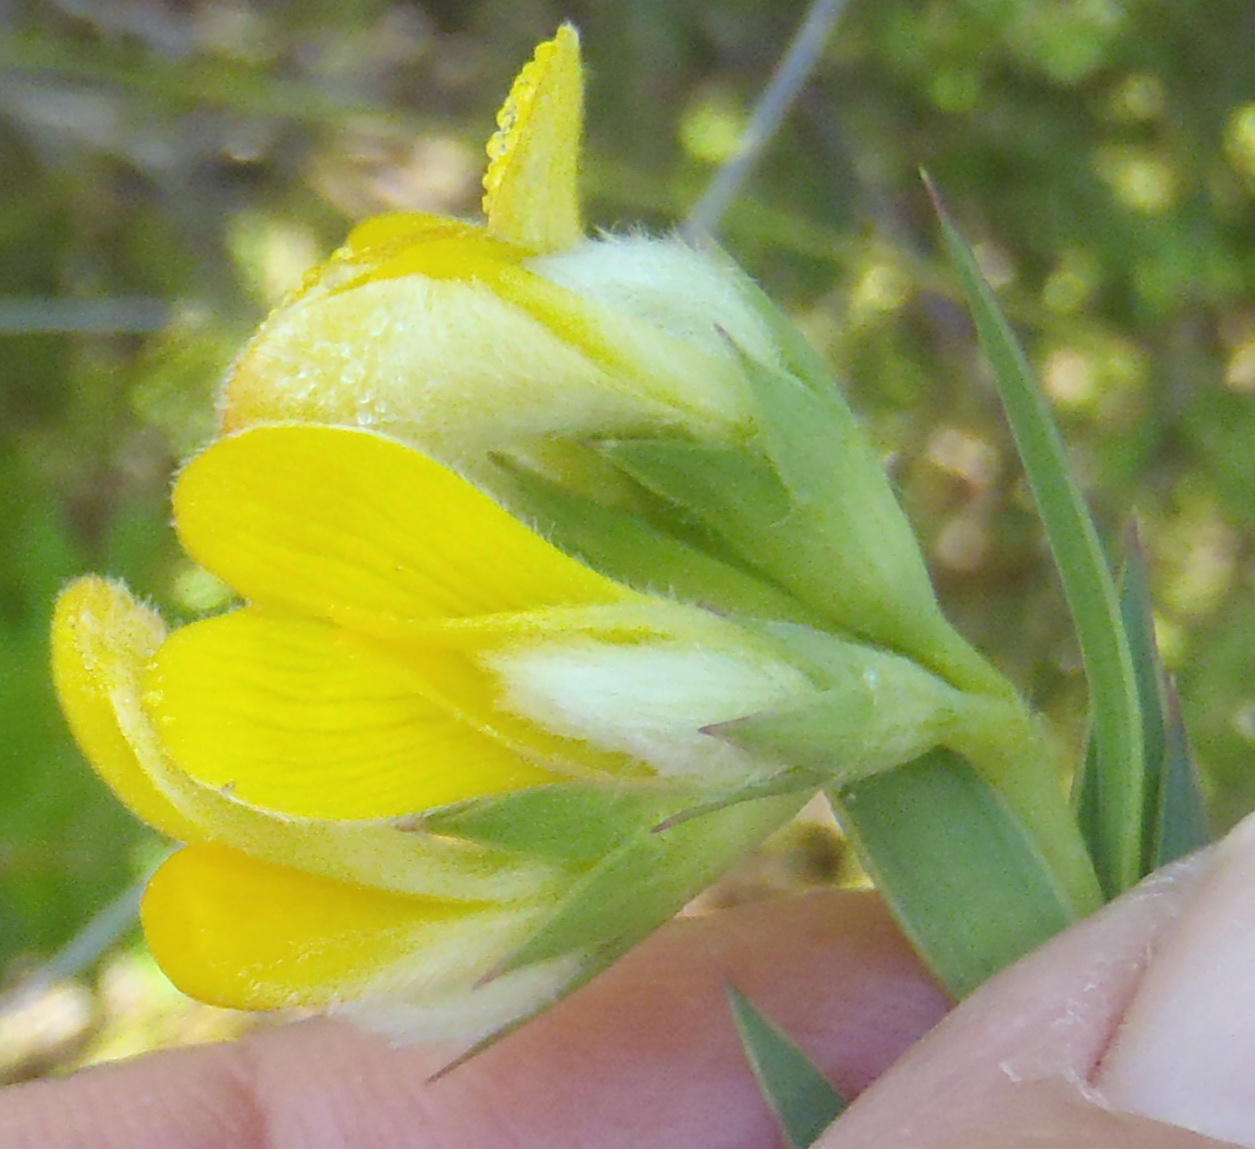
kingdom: Plantae
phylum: Tracheophyta
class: Magnoliopsida
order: Fabales
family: Fabaceae
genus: Aspalathus
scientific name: Aspalathus angustifolia
